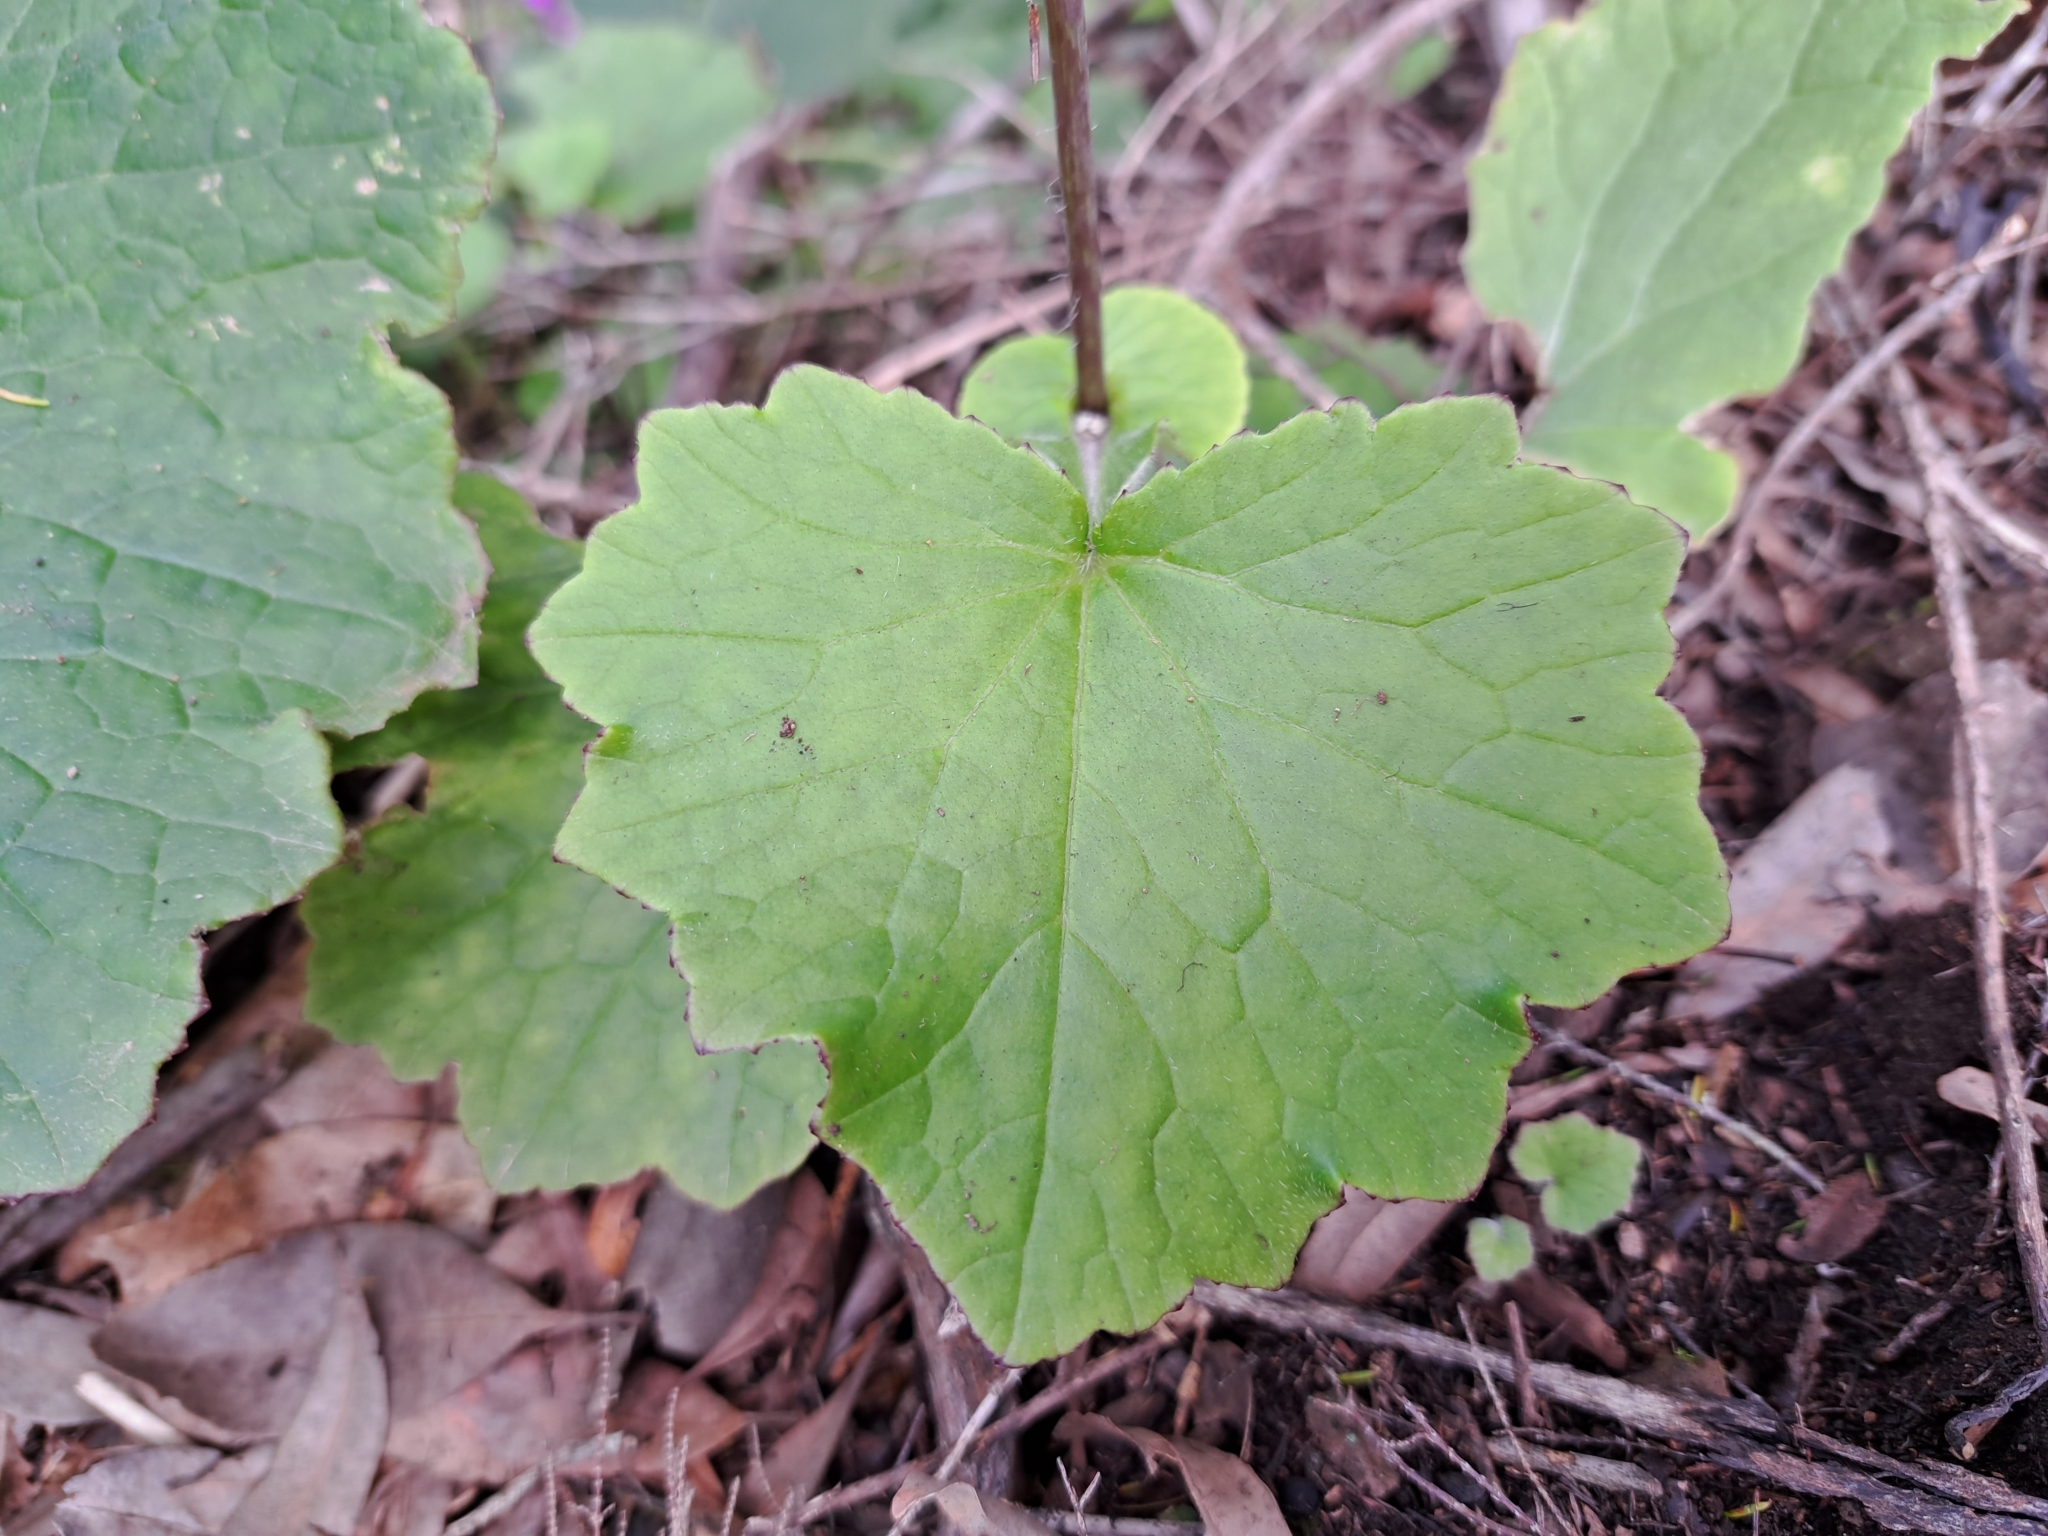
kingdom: Plantae
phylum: Tracheophyta
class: Magnoliopsida
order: Asterales
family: Asteraceae
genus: Pericallis
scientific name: Pericallis tussilaginis
